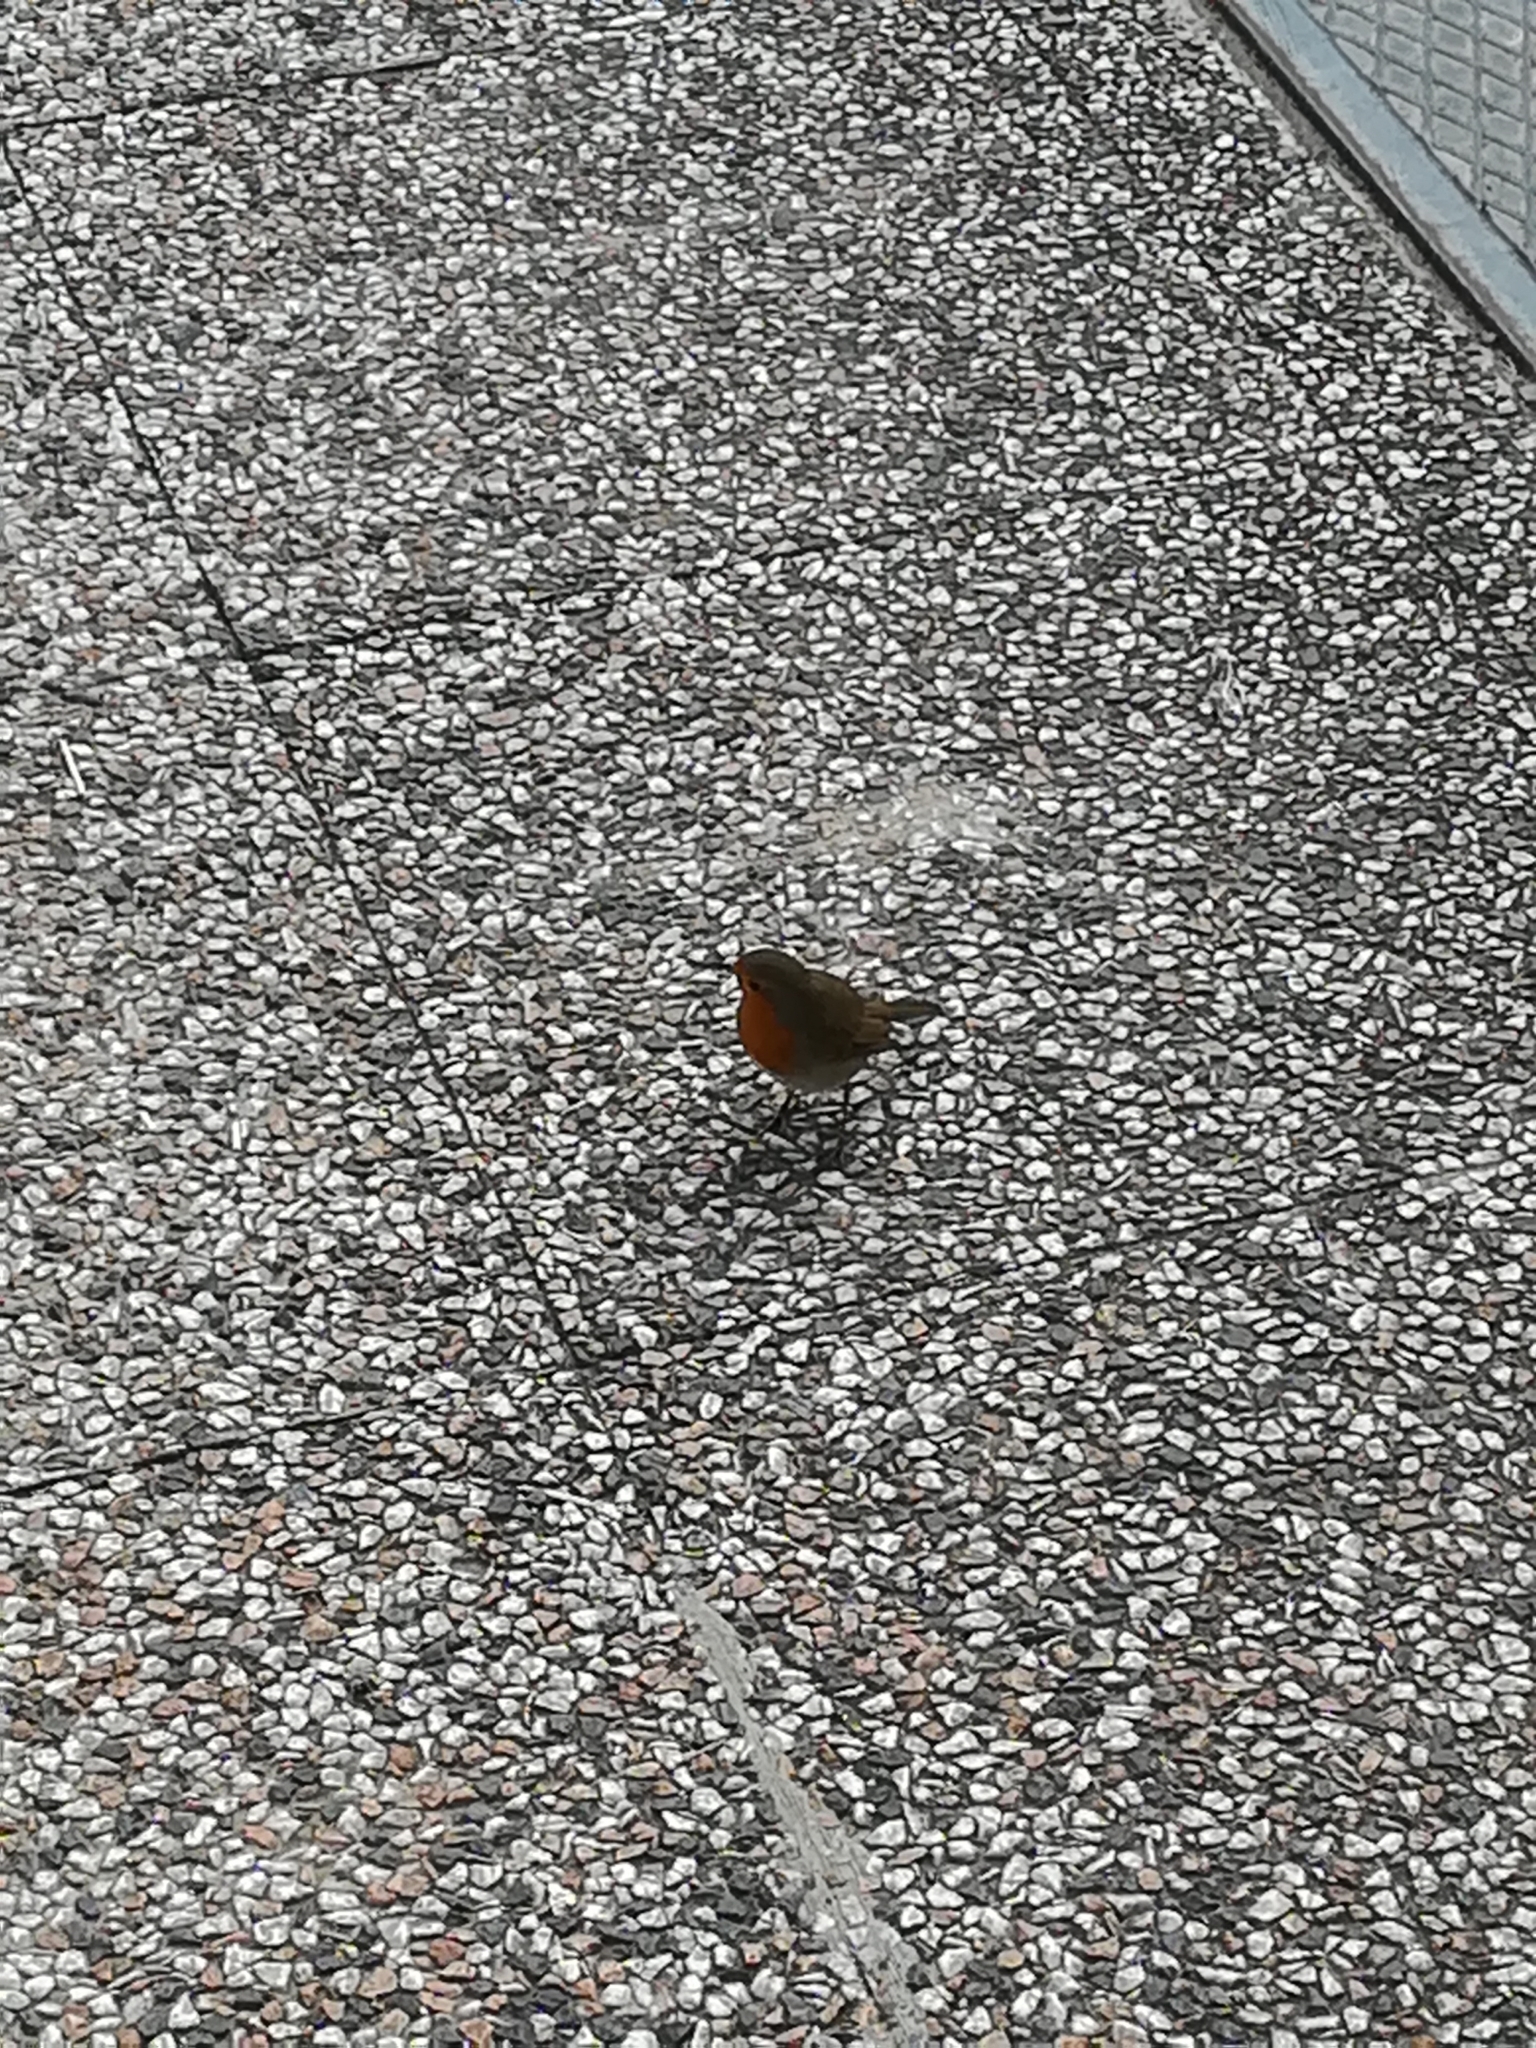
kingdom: Animalia
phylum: Chordata
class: Aves
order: Passeriformes
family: Muscicapidae
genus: Erithacus
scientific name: Erithacus rubecula
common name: European robin
